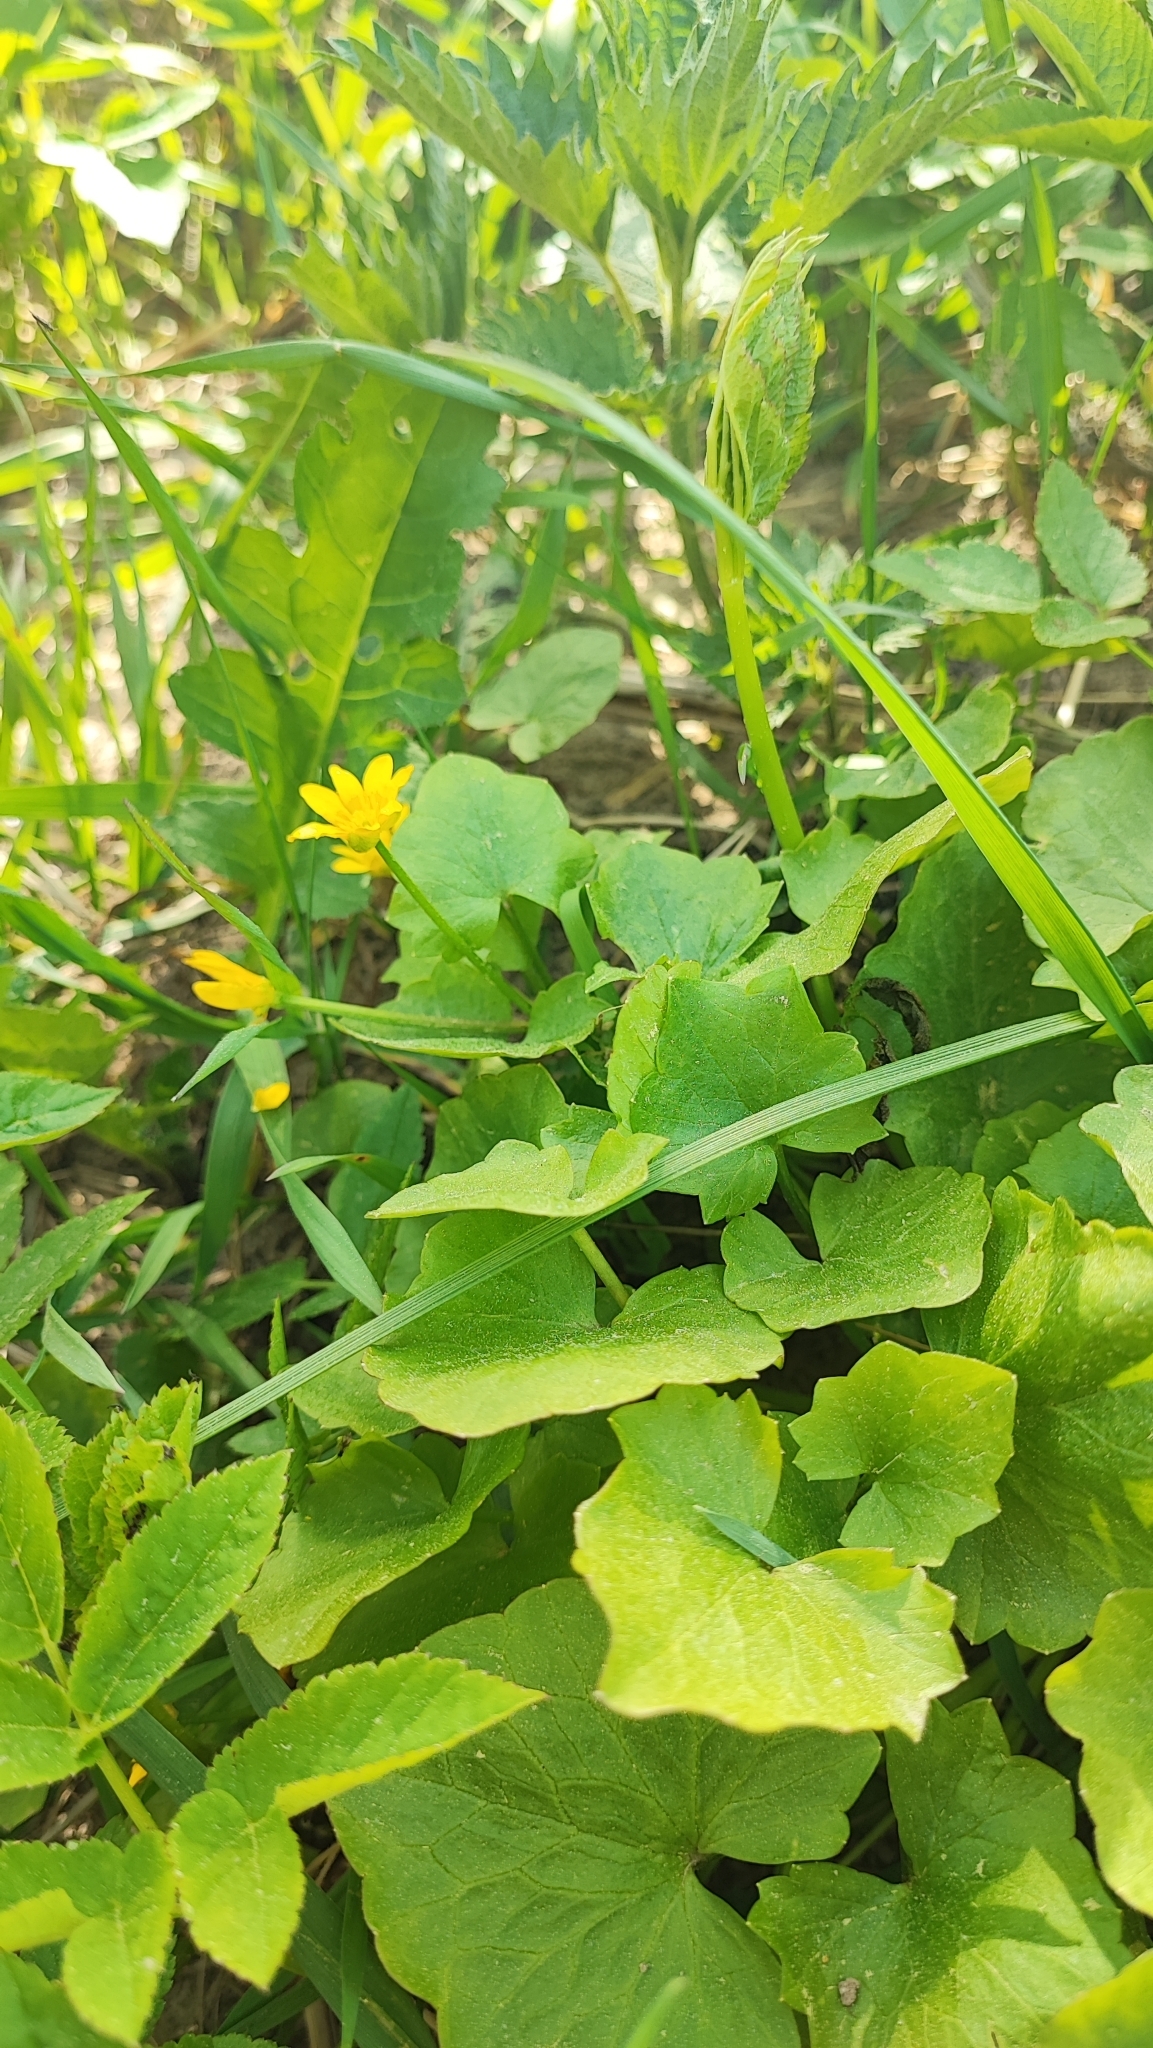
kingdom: Plantae
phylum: Tracheophyta
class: Magnoliopsida
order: Ranunculales
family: Ranunculaceae
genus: Ficaria
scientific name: Ficaria verna
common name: Lesser celandine
